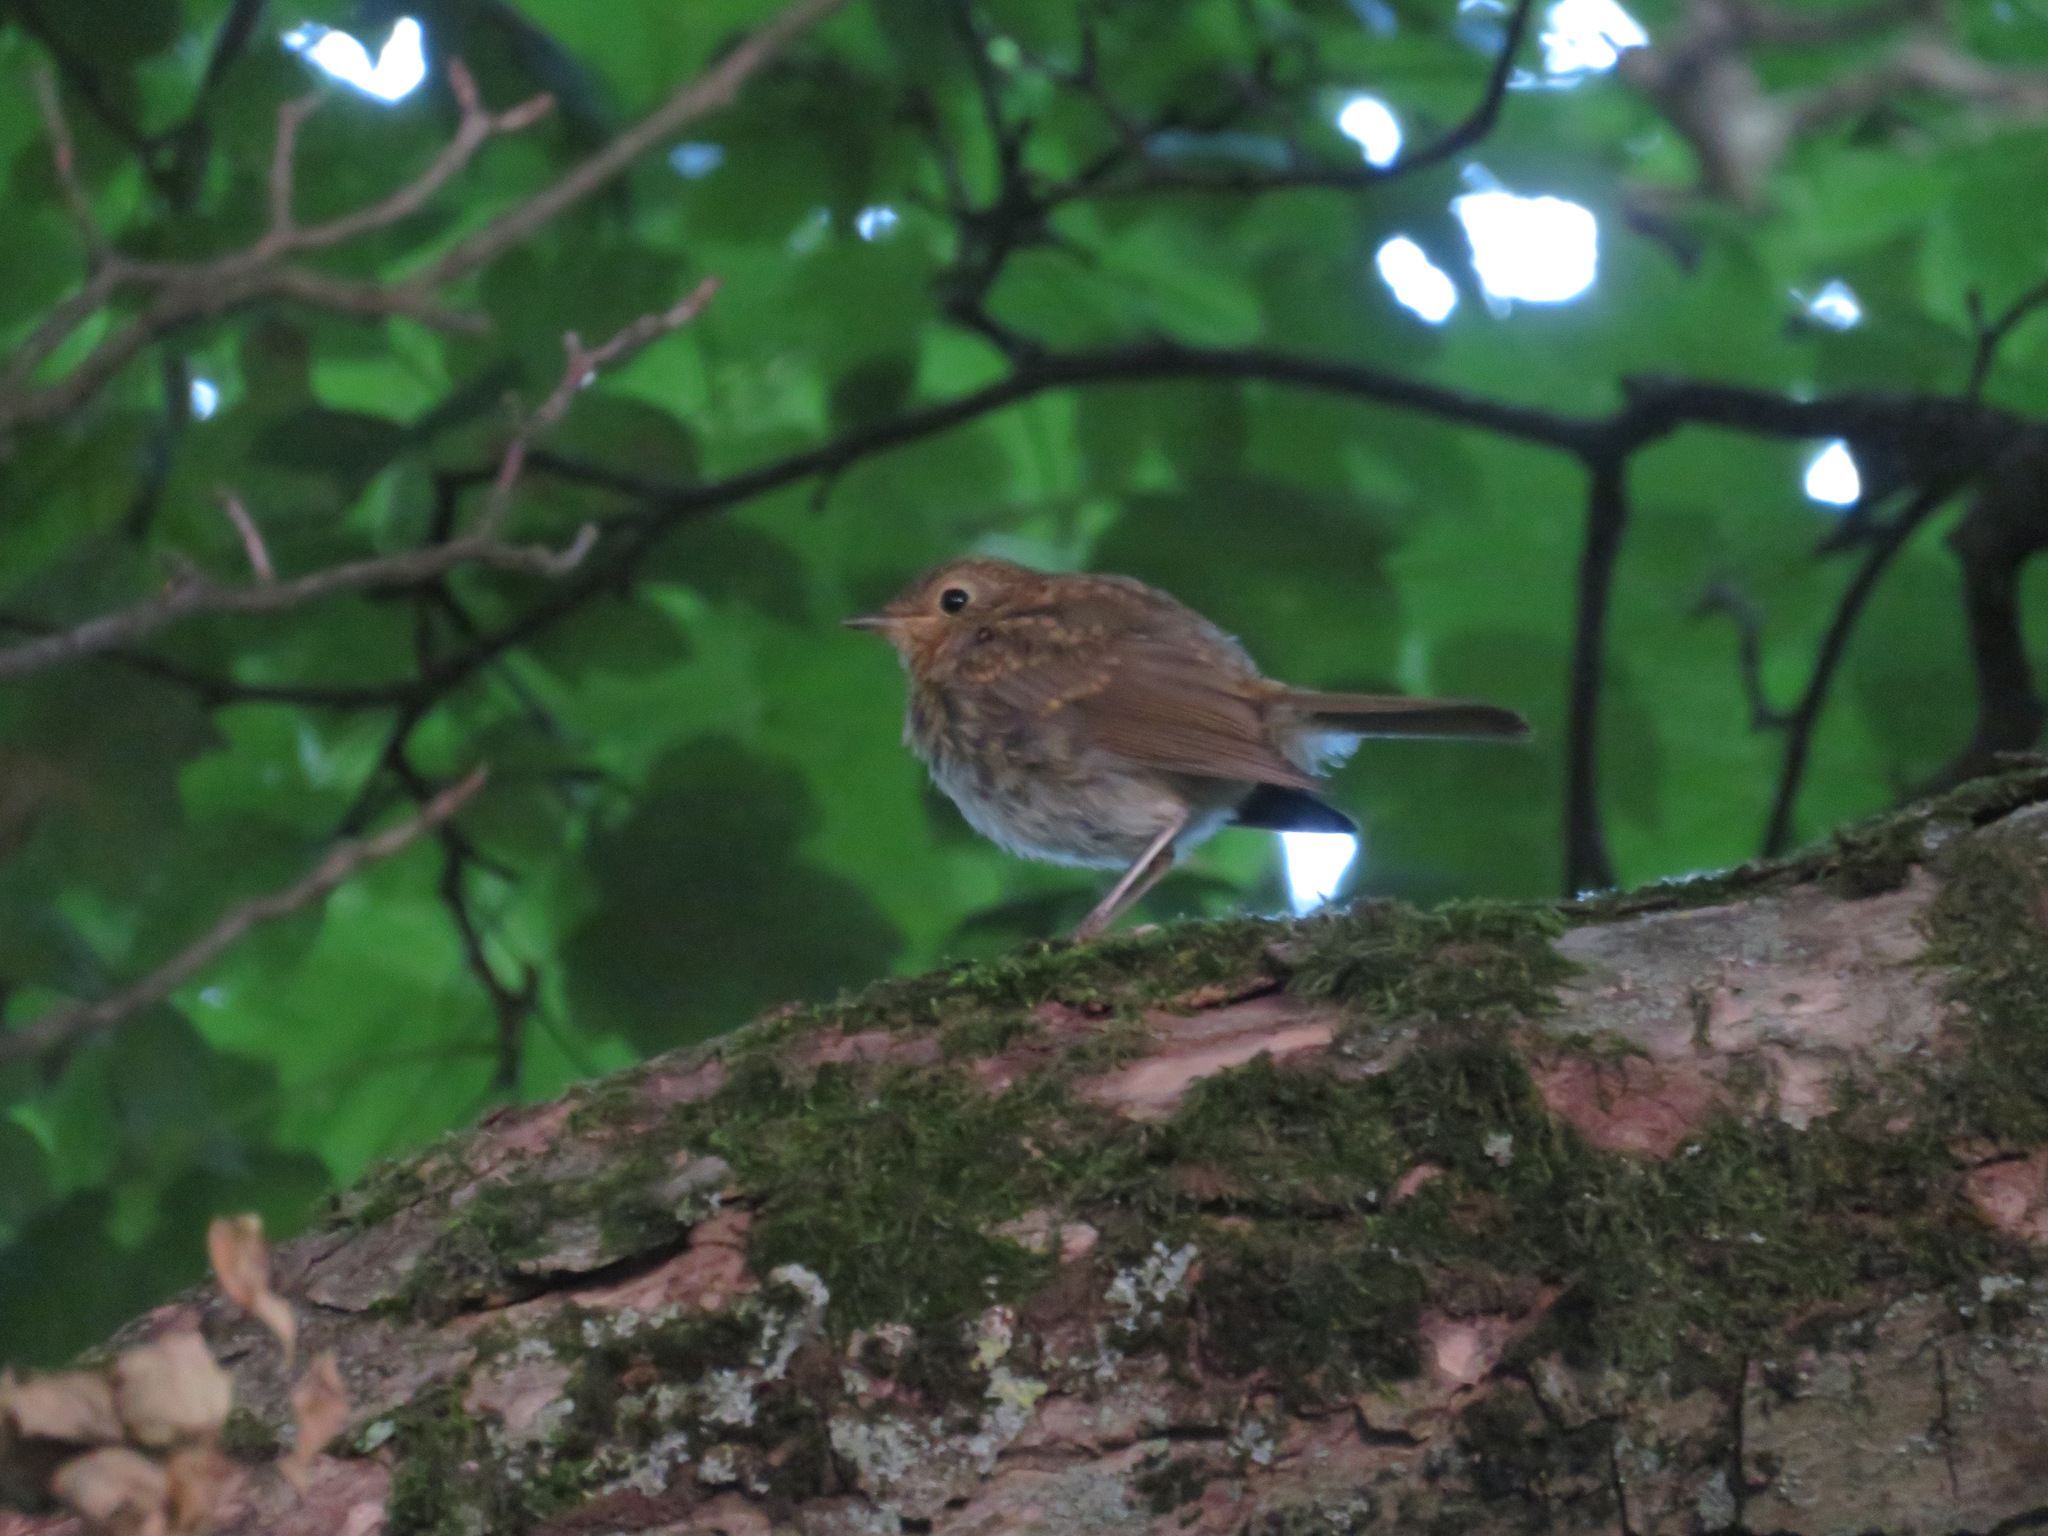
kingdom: Animalia
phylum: Chordata
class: Aves
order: Passeriformes
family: Muscicapidae
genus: Erithacus
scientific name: Erithacus rubecula
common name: European robin
